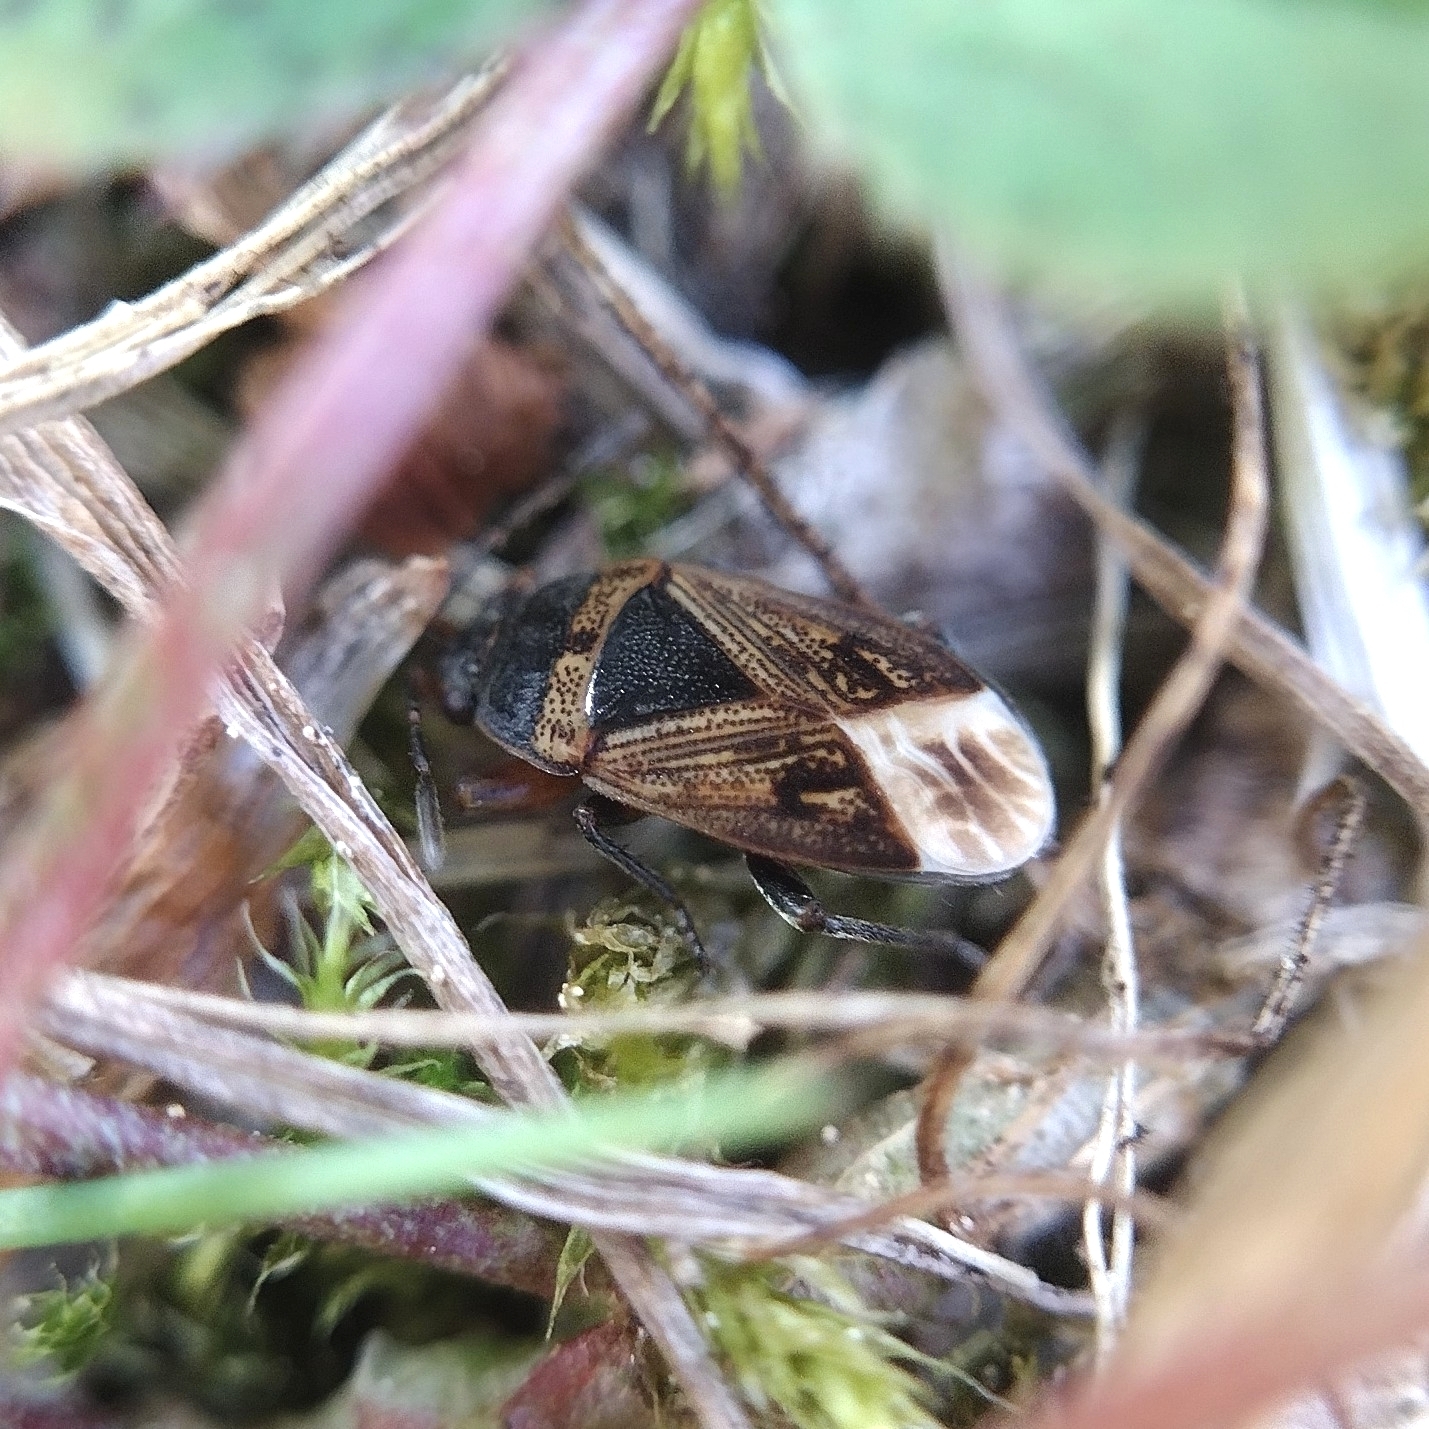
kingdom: Animalia
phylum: Arthropoda
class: Insecta
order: Hemiptera
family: Rhyparochromidae
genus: Trapezonotus
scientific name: Trapezonotus desertus
